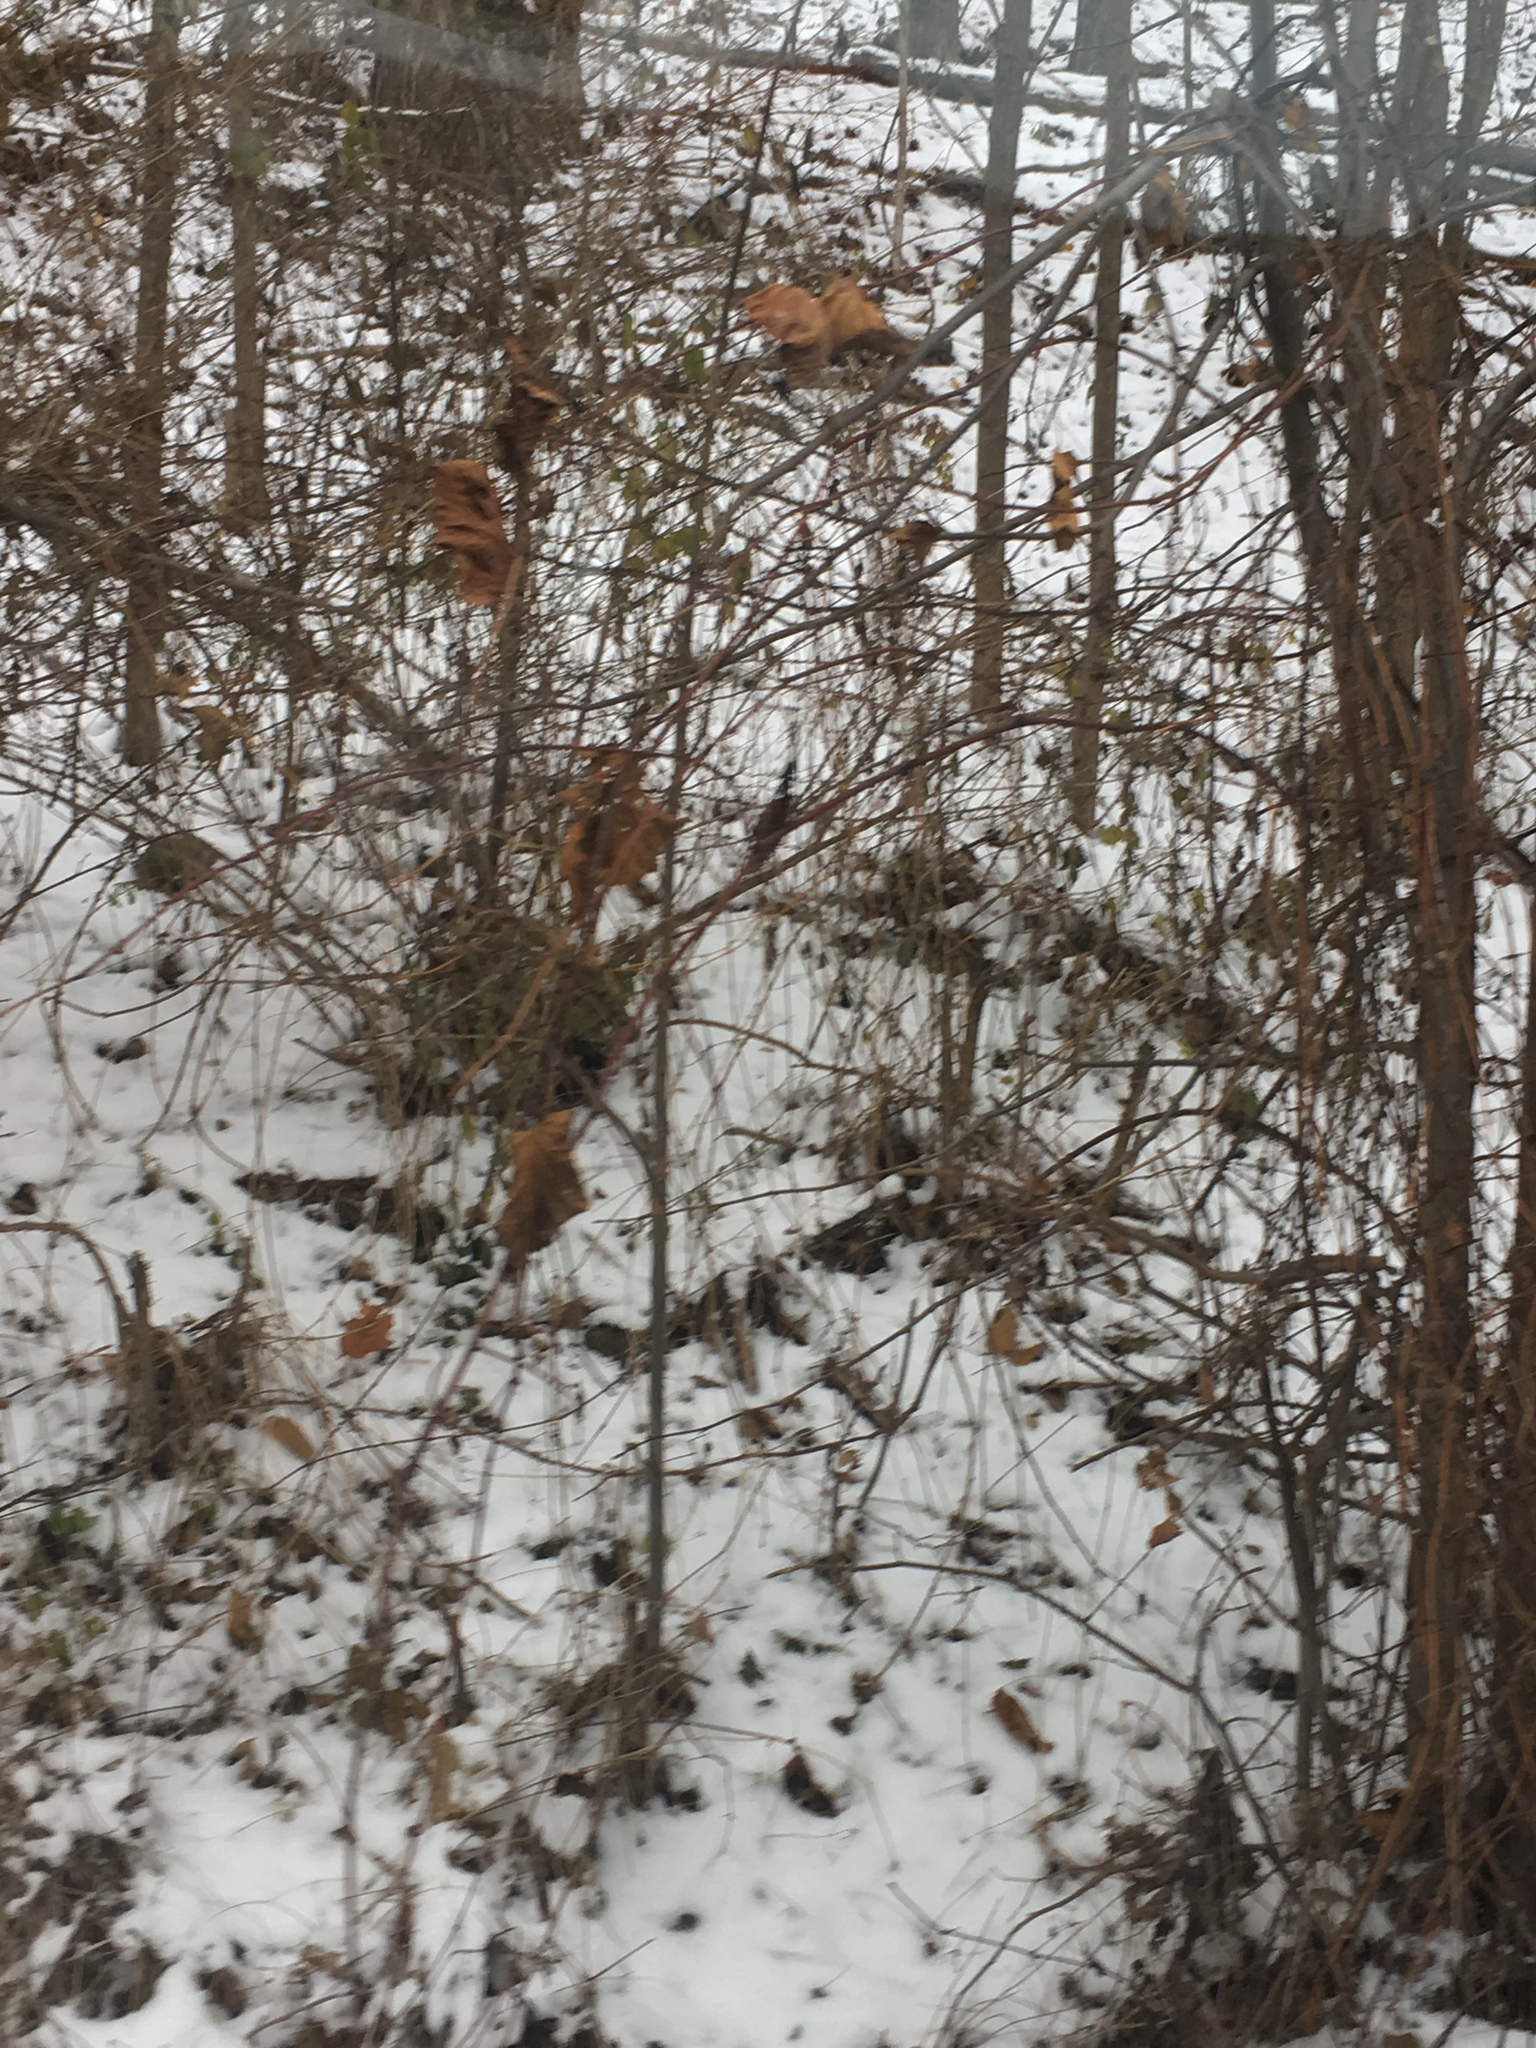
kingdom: Plantae
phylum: Tracheophyta
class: Magnoliopsida
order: Vitales
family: Vitaceae
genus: Vitis
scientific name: Vitis riparia
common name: Frost grape
